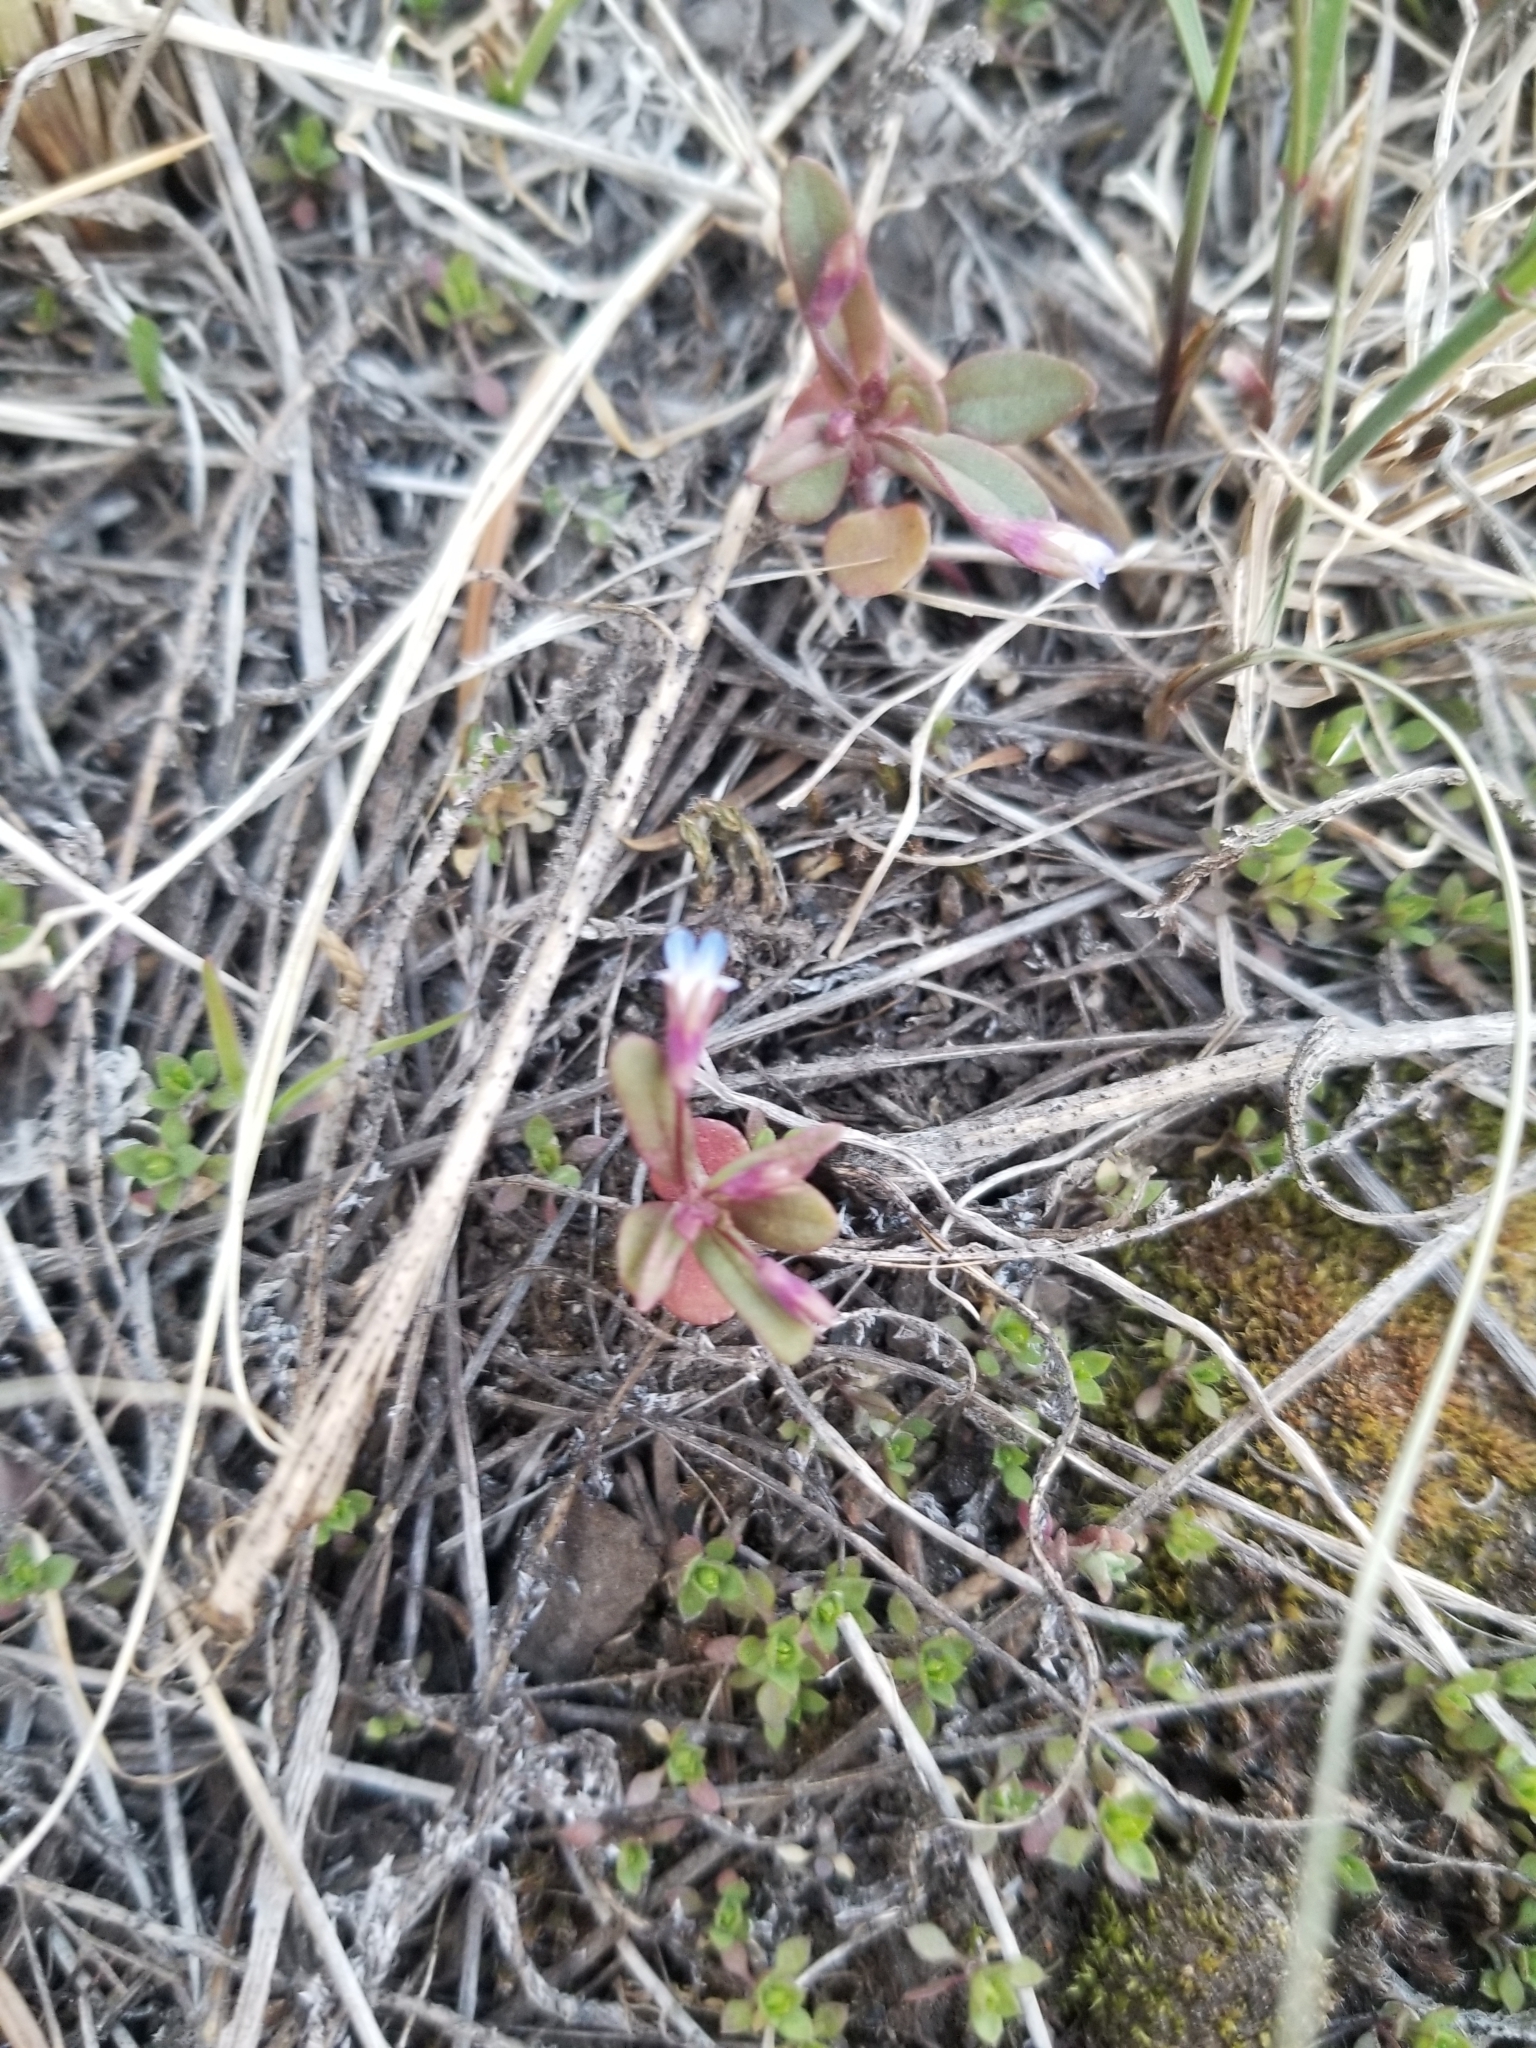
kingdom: Plantae
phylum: Tracheophyta
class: Magnoliopsida
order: Lamiales
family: Plantaginaceae
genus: Collinsia
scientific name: Collinsia parviflora
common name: Blue-lips
